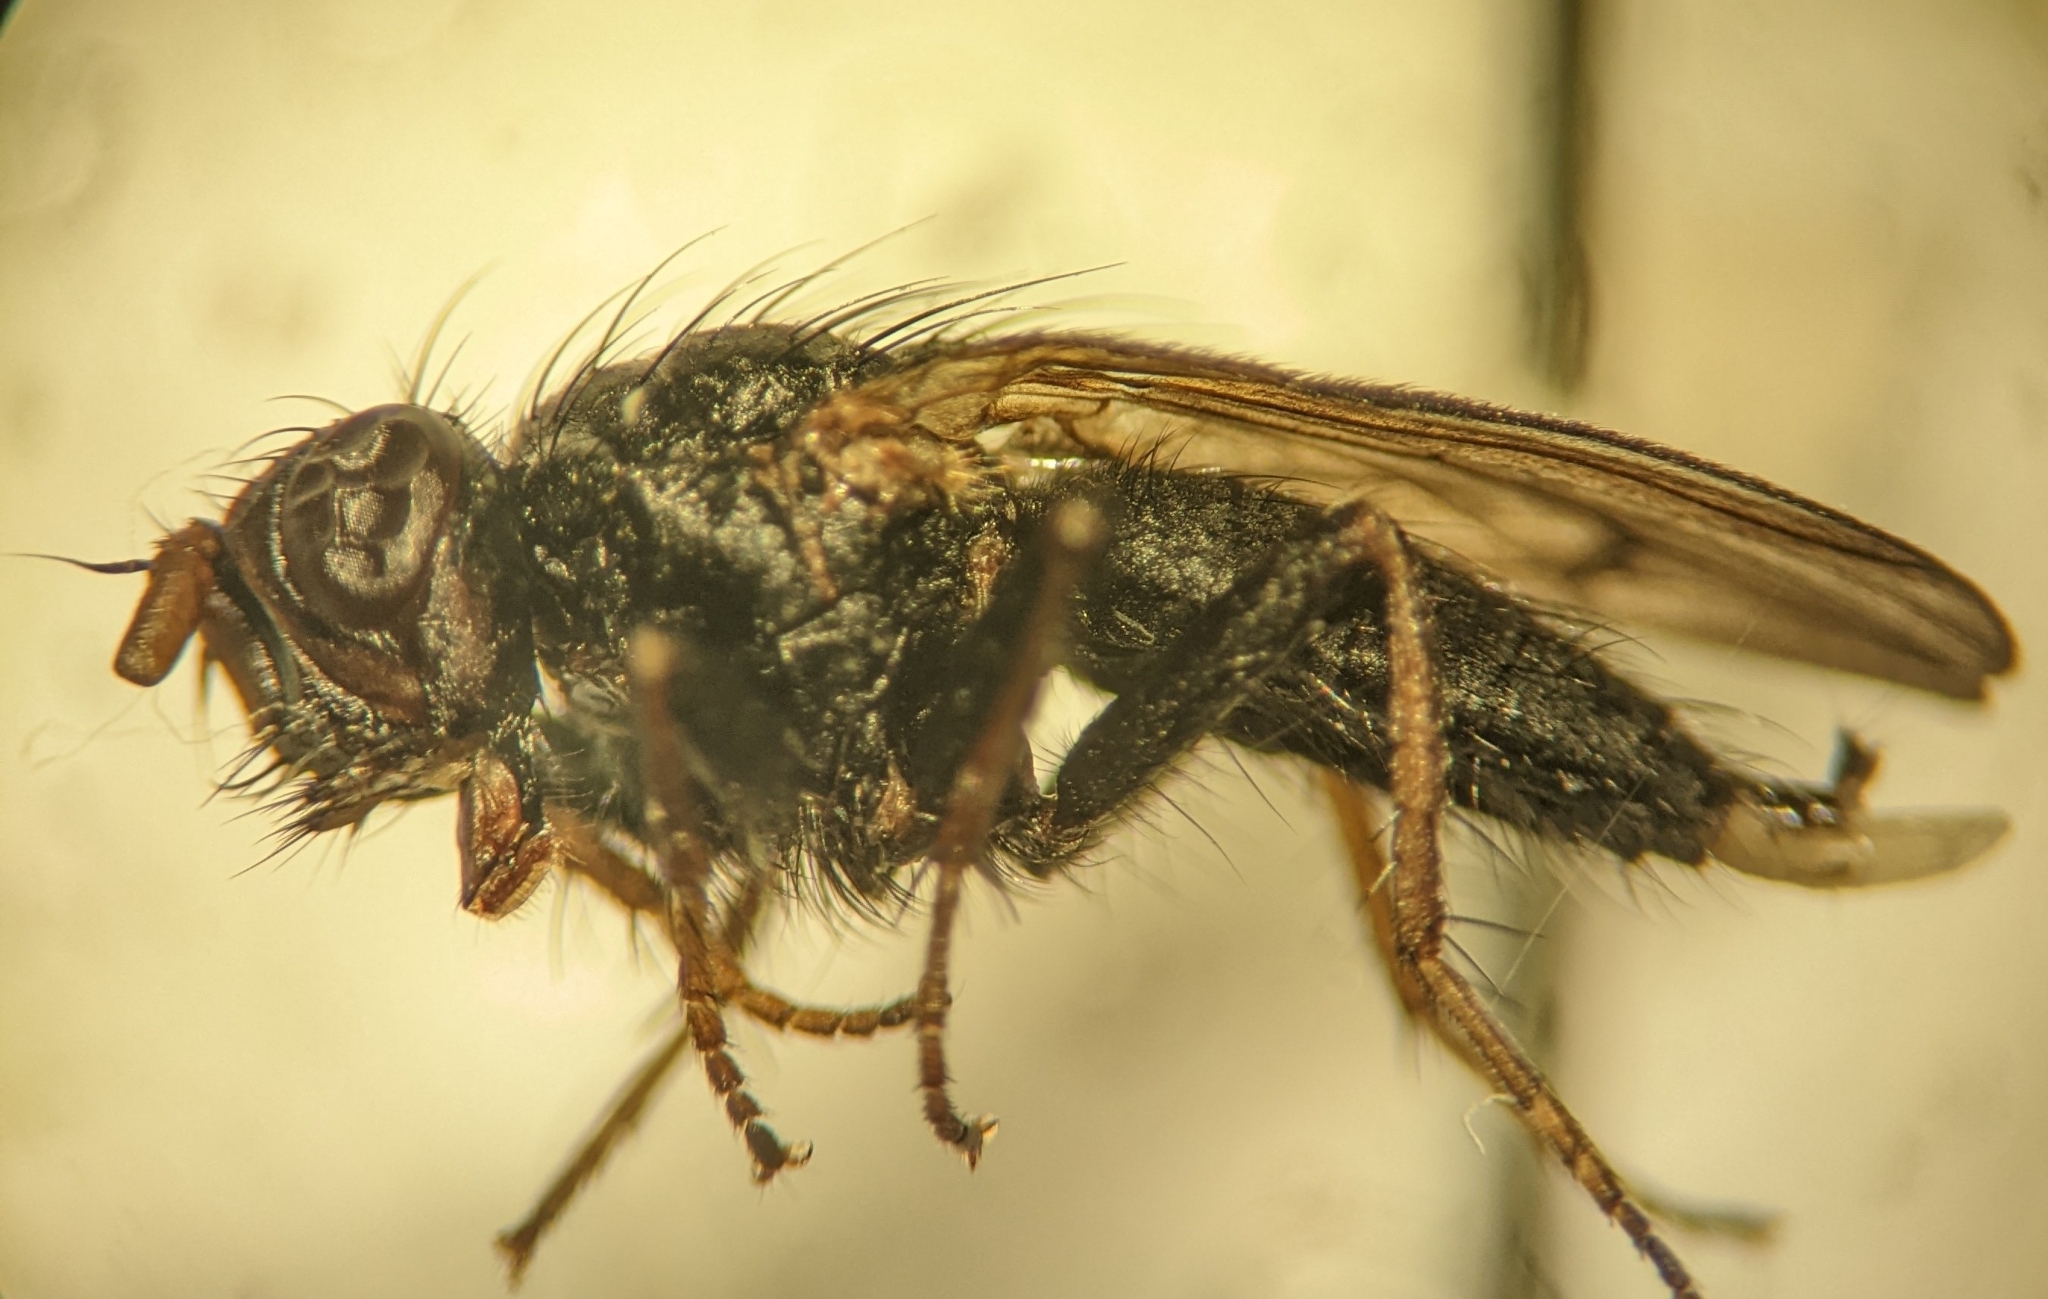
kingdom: Animalia
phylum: Arthropoda
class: Insecta
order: Diptera
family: Scathophagidae
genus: Bucephalina
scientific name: Bucephalina megacephala
